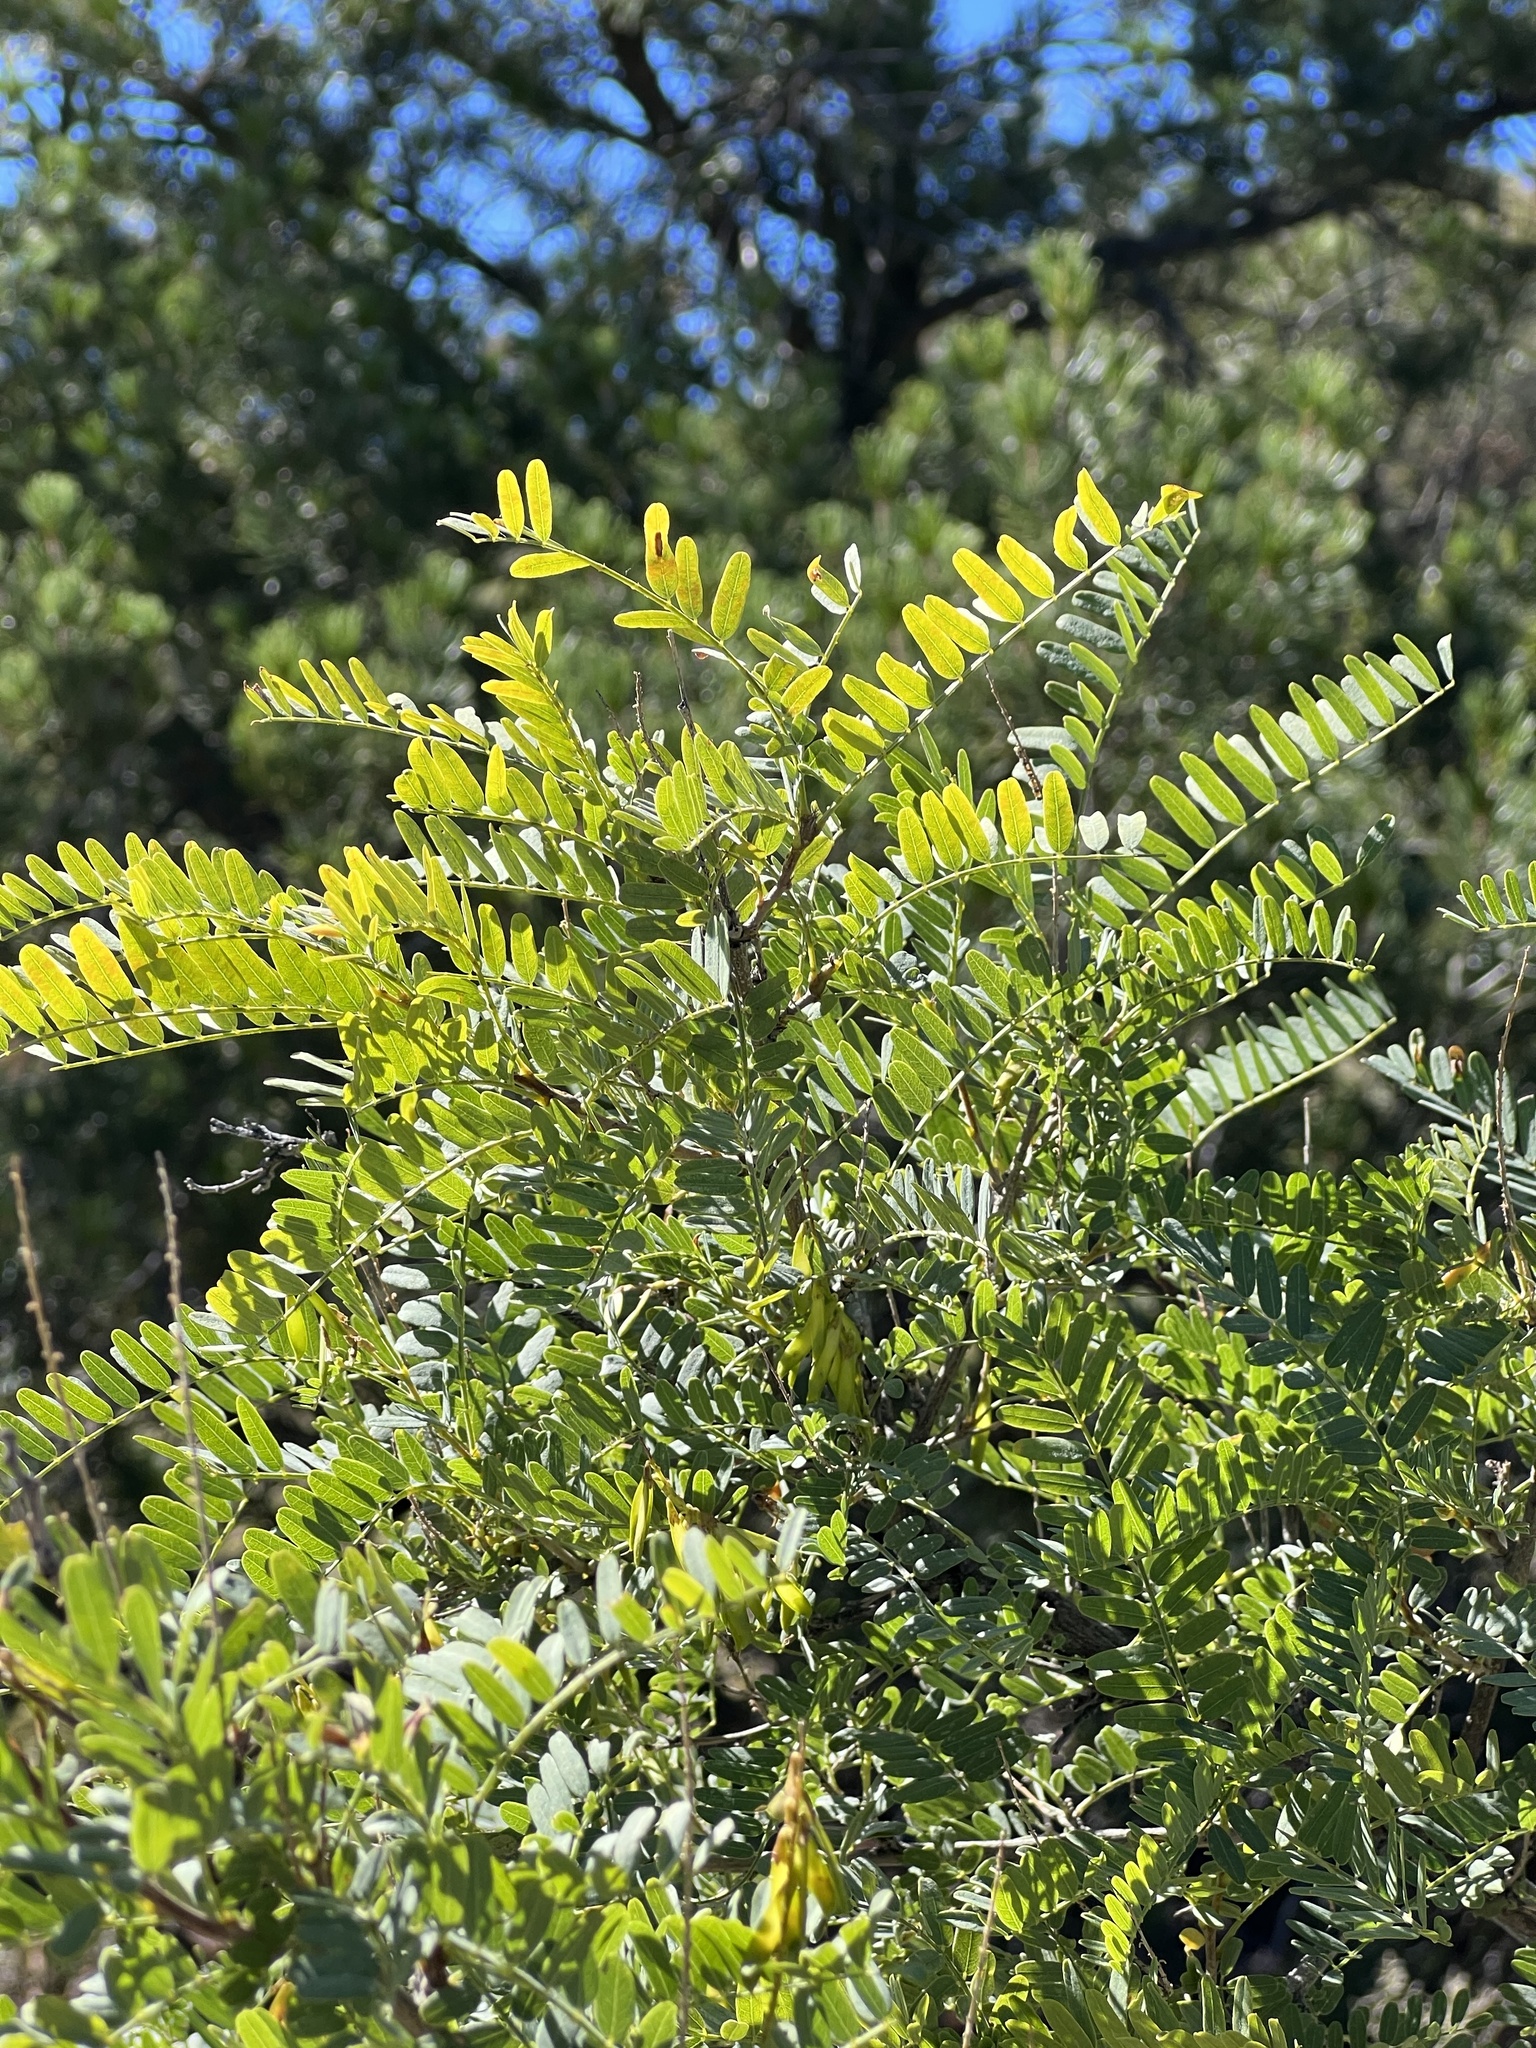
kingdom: Plantae
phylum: Tracheophyta
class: Magnoliopsida
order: Fabales
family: Fabaceae
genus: Eysenhardtia
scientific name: Eysenhardtia orthocarpa
